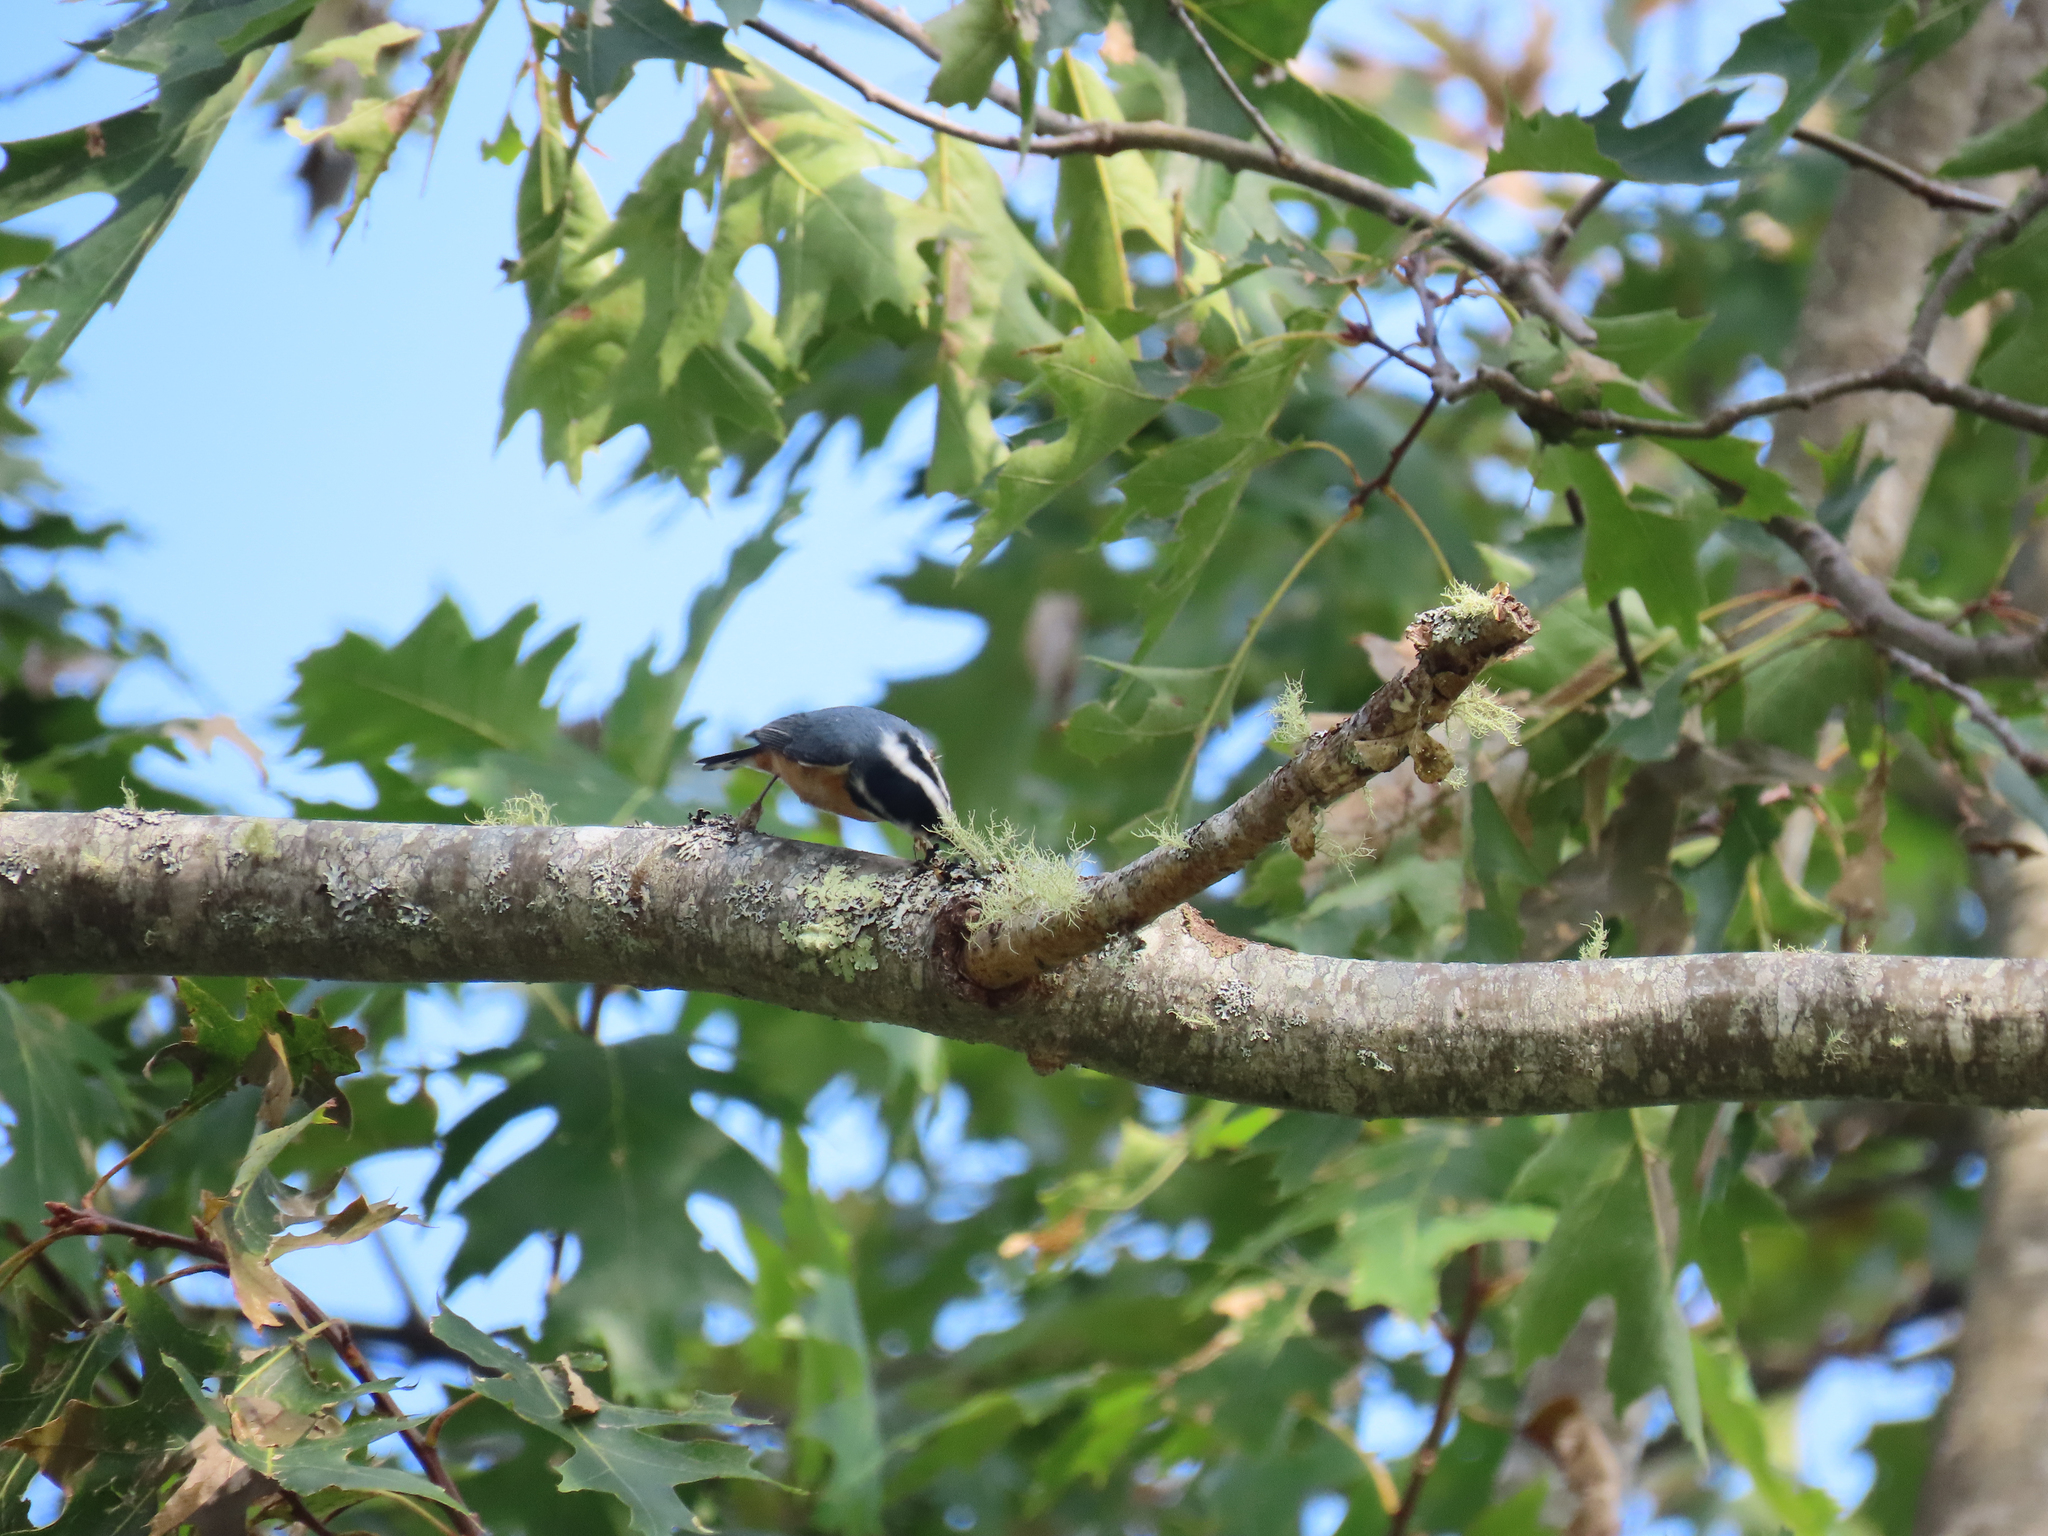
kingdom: Animalia
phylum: Chordata
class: Aves
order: Passeriformes
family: Sittidae
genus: Sitta
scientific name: Sitta canadensis
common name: Red-breasted nuthatch
